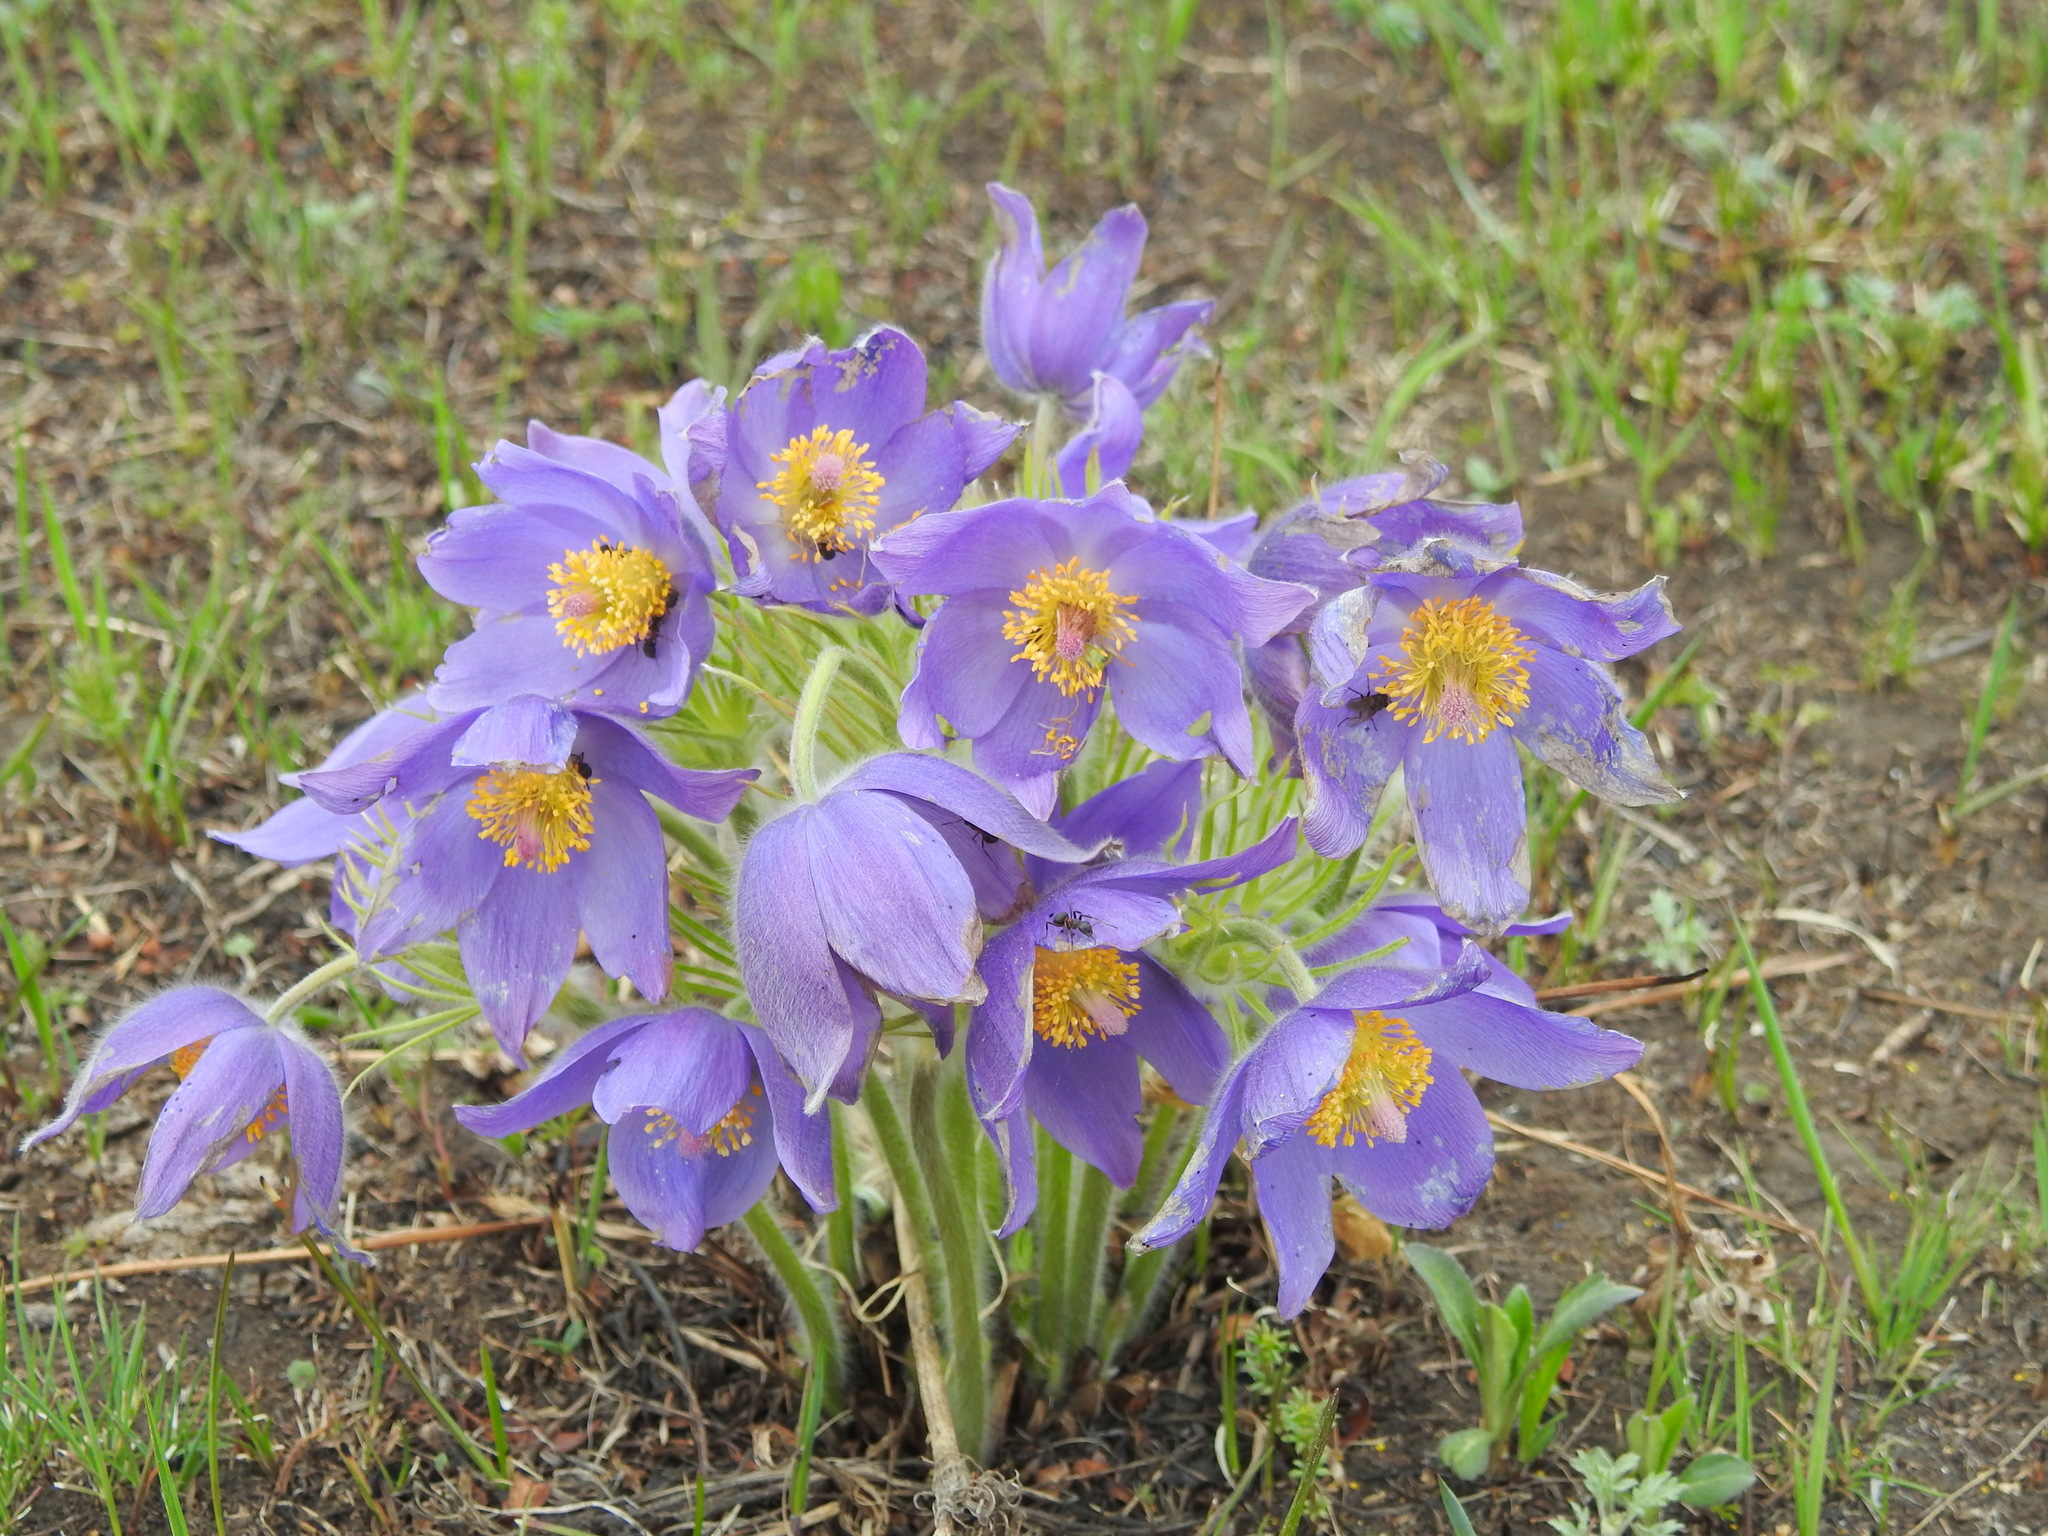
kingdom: Plantae
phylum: Tracheophyta
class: Magnoliopsida
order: Ranunculales
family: Ranunculaceae
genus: Pulsatilla
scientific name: Pulsatilla patens
